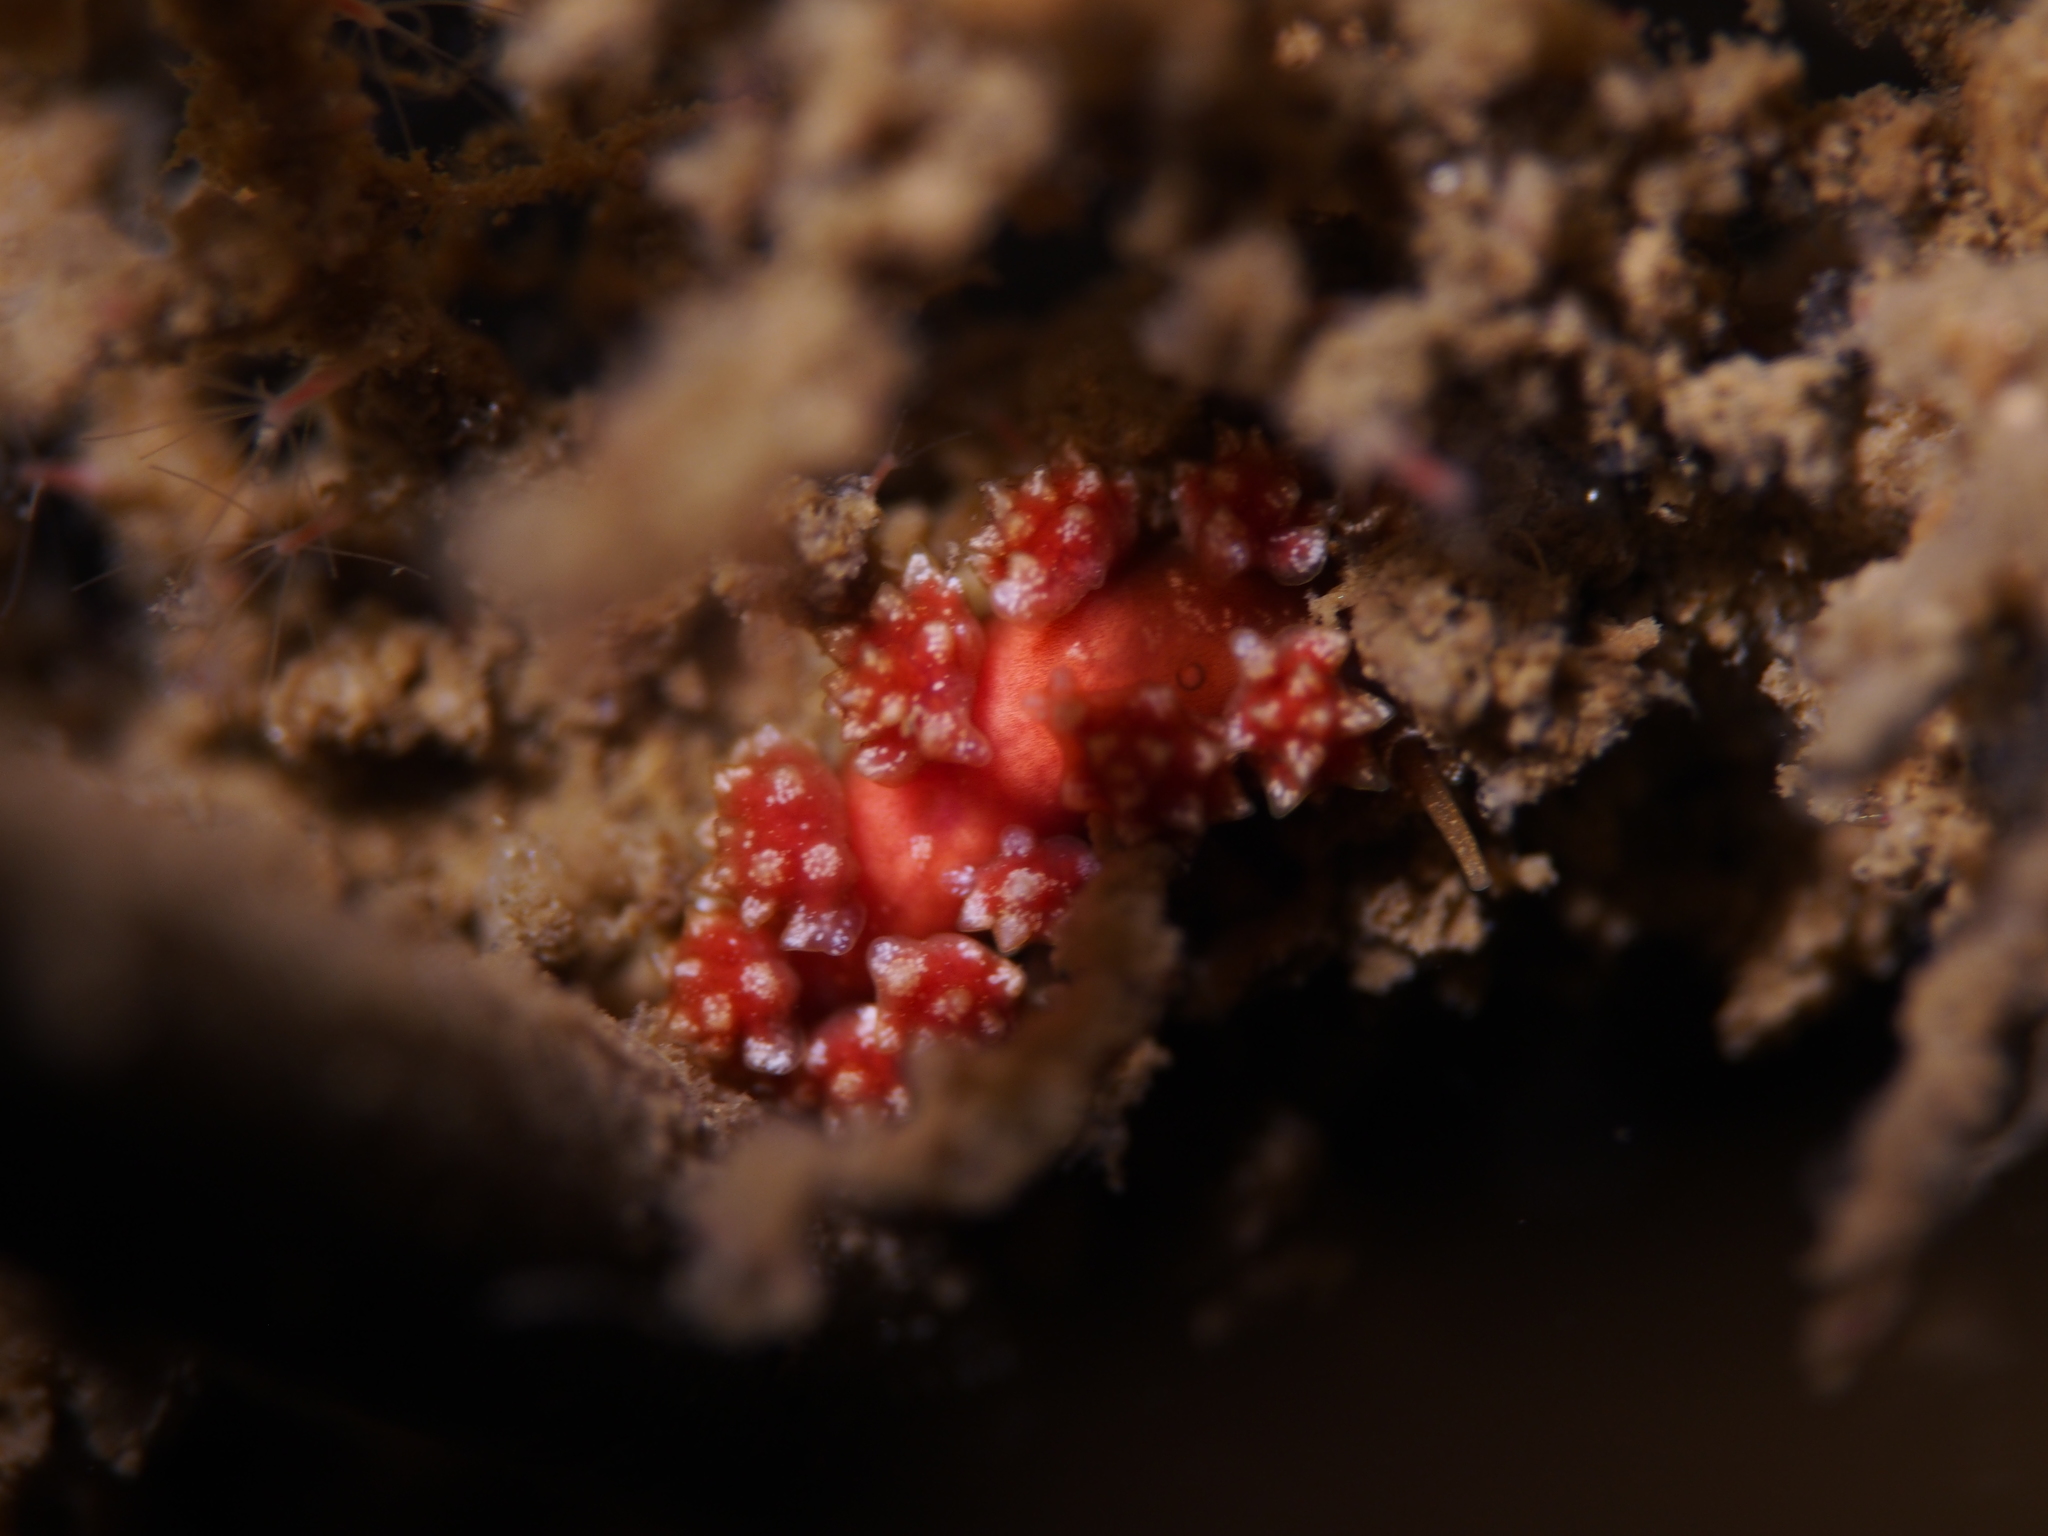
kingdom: Animalia
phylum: Mollusca
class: Gastropoda
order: Nudibranchia
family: Dotidae
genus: Doto
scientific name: Doto fragilis
